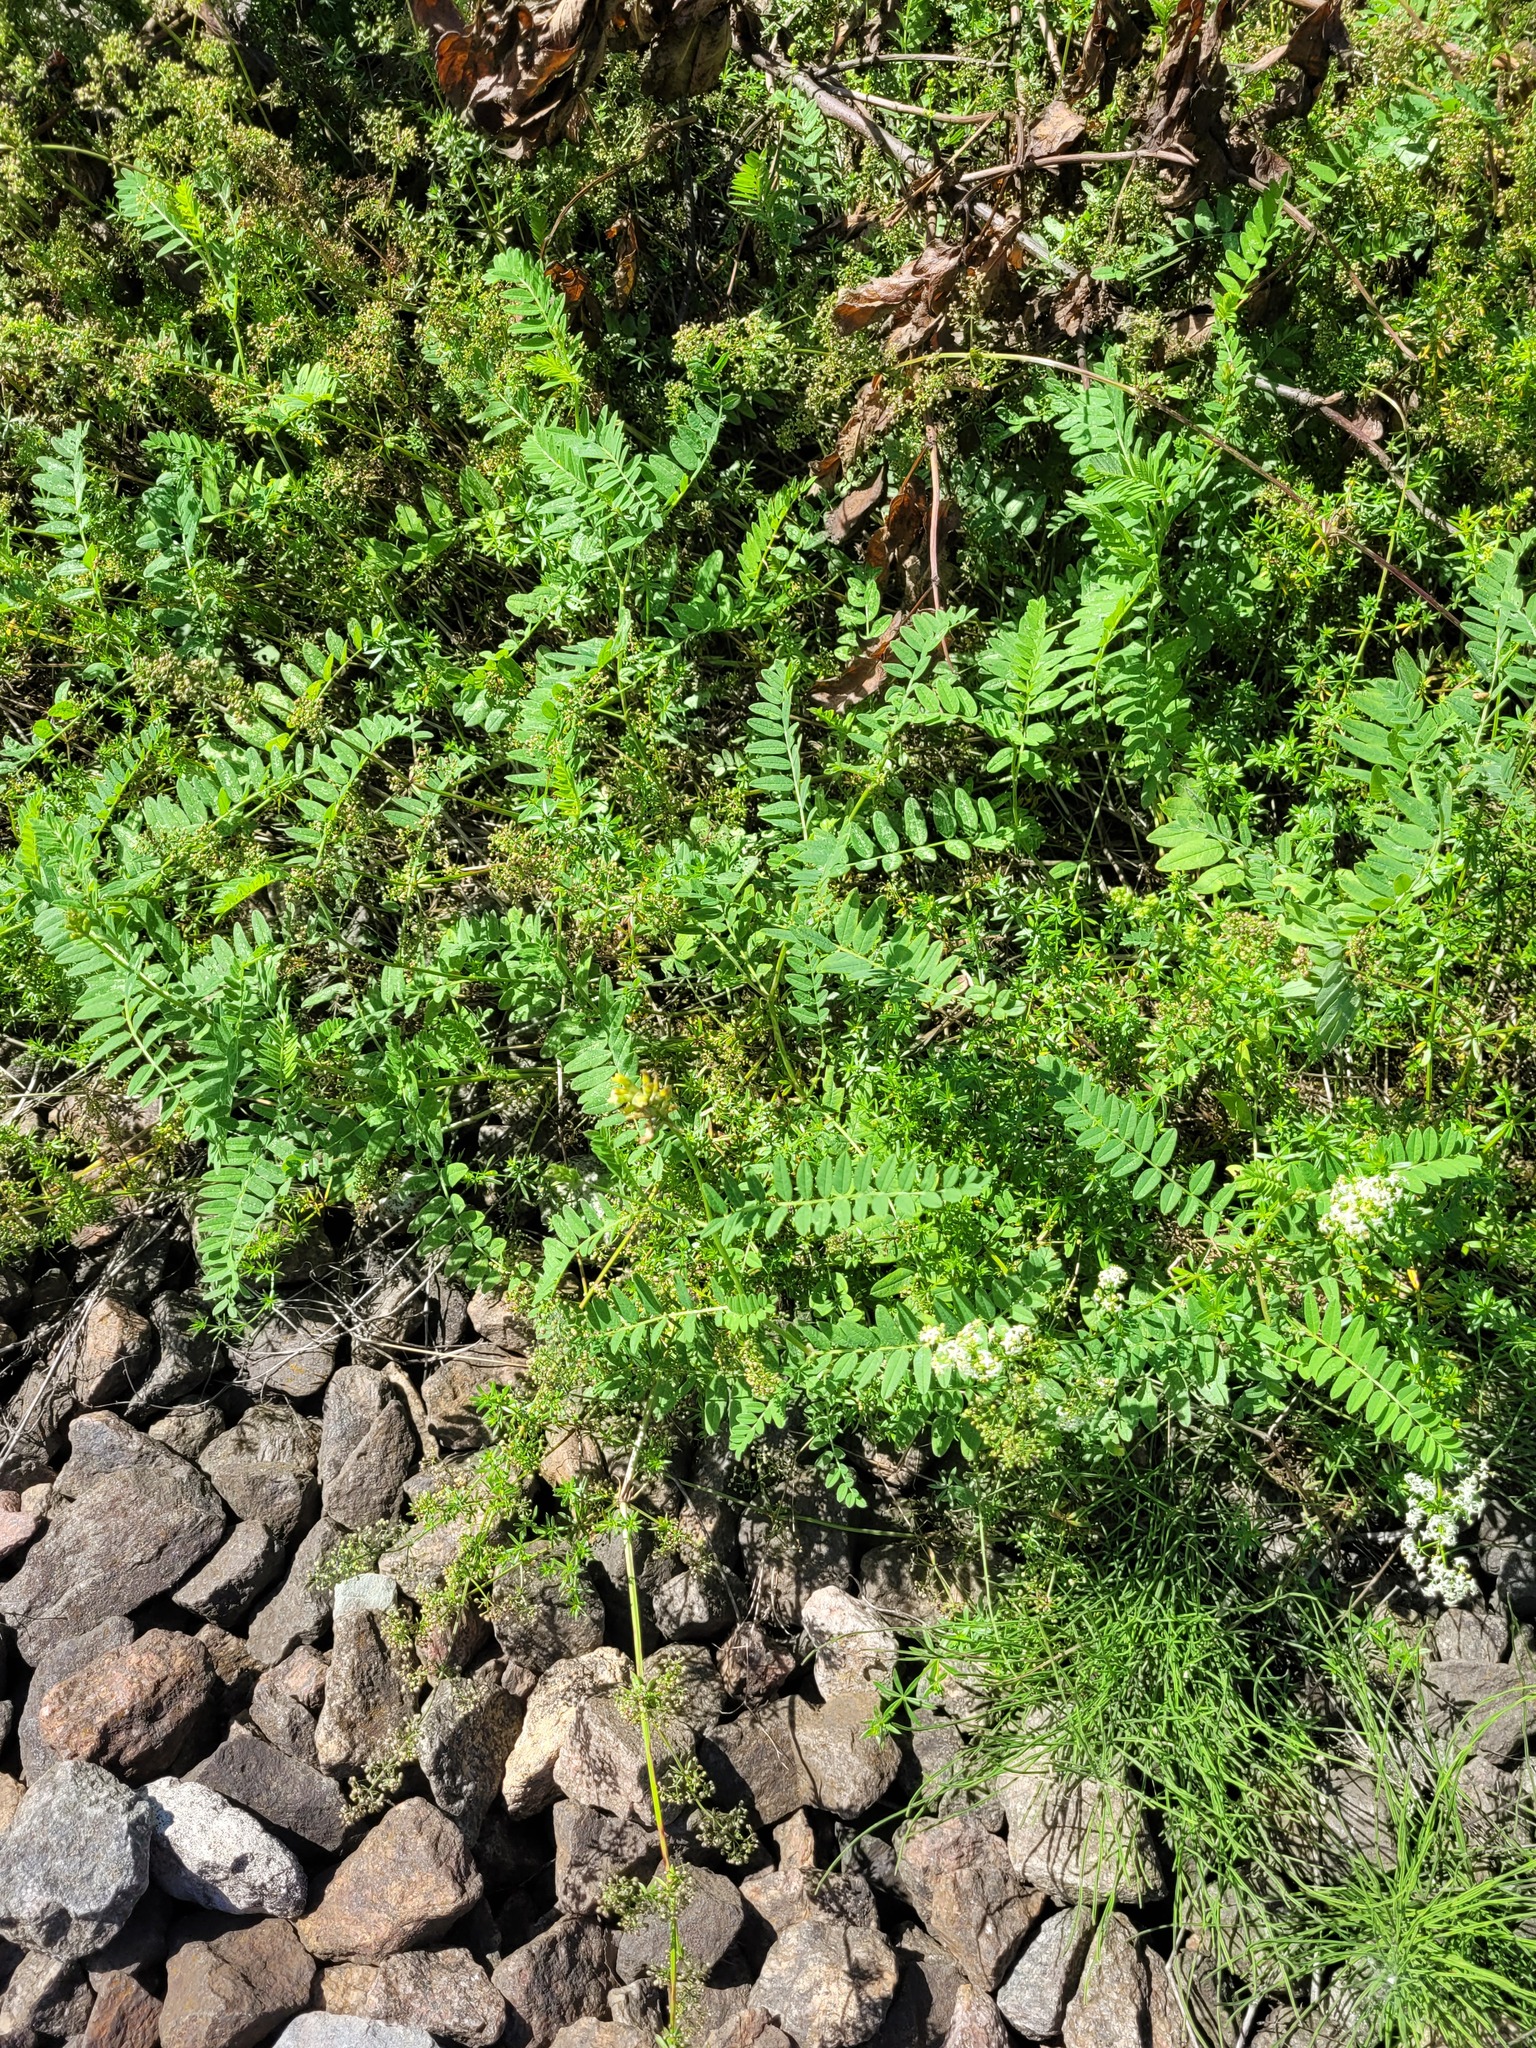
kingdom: Plantae
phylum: Tracheophyta
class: Magnoliopsida
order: Fabales
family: Fabaceae
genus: Astragalus
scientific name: Astragalus cicer
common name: Chick-pea milk-vetch
